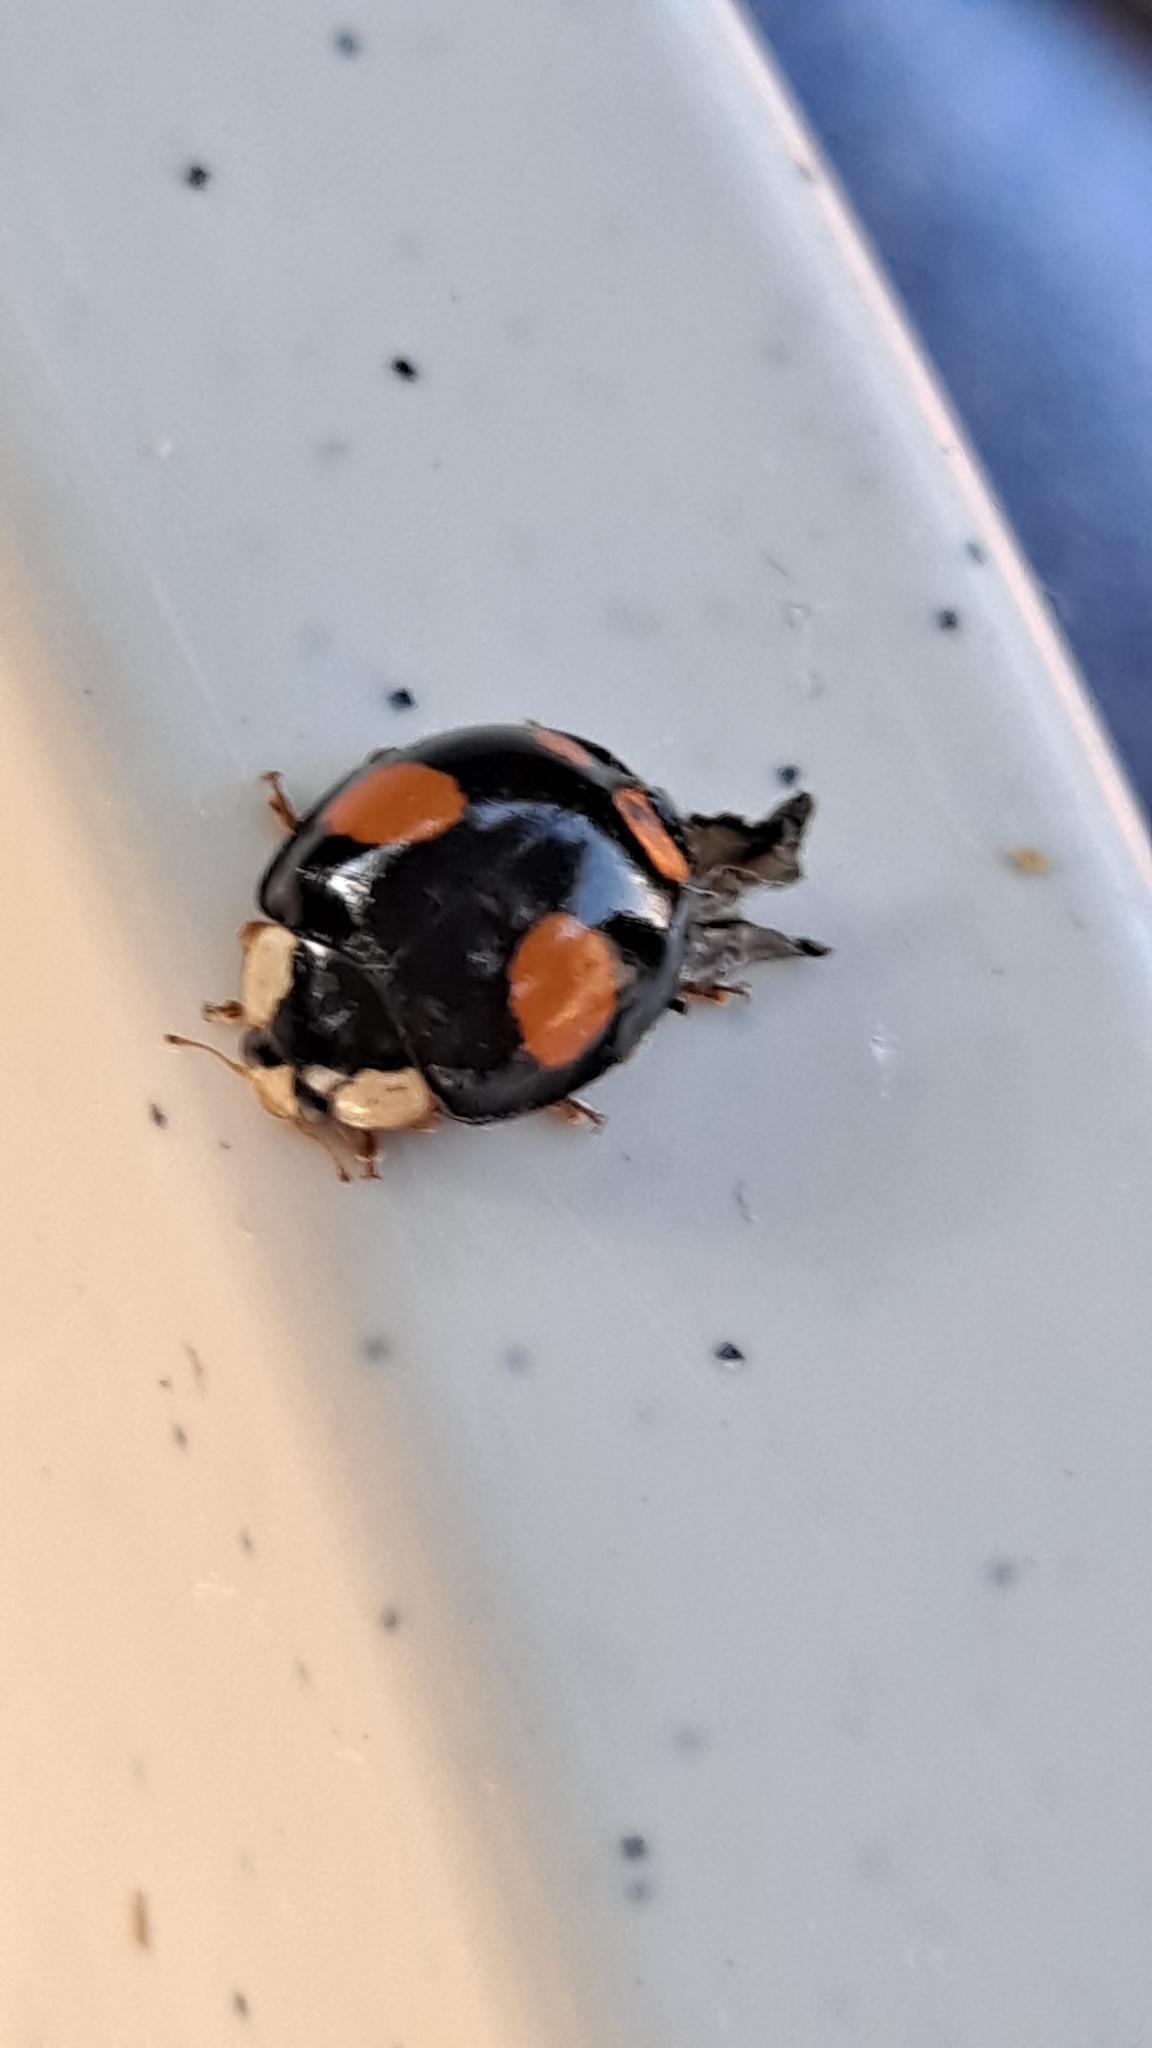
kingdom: Animalia
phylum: Arthropoda
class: Insecta
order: Coleoptera
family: Coccinellidae
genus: Harmonia
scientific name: Harmonia axyridis
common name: Harlequin ladybird
